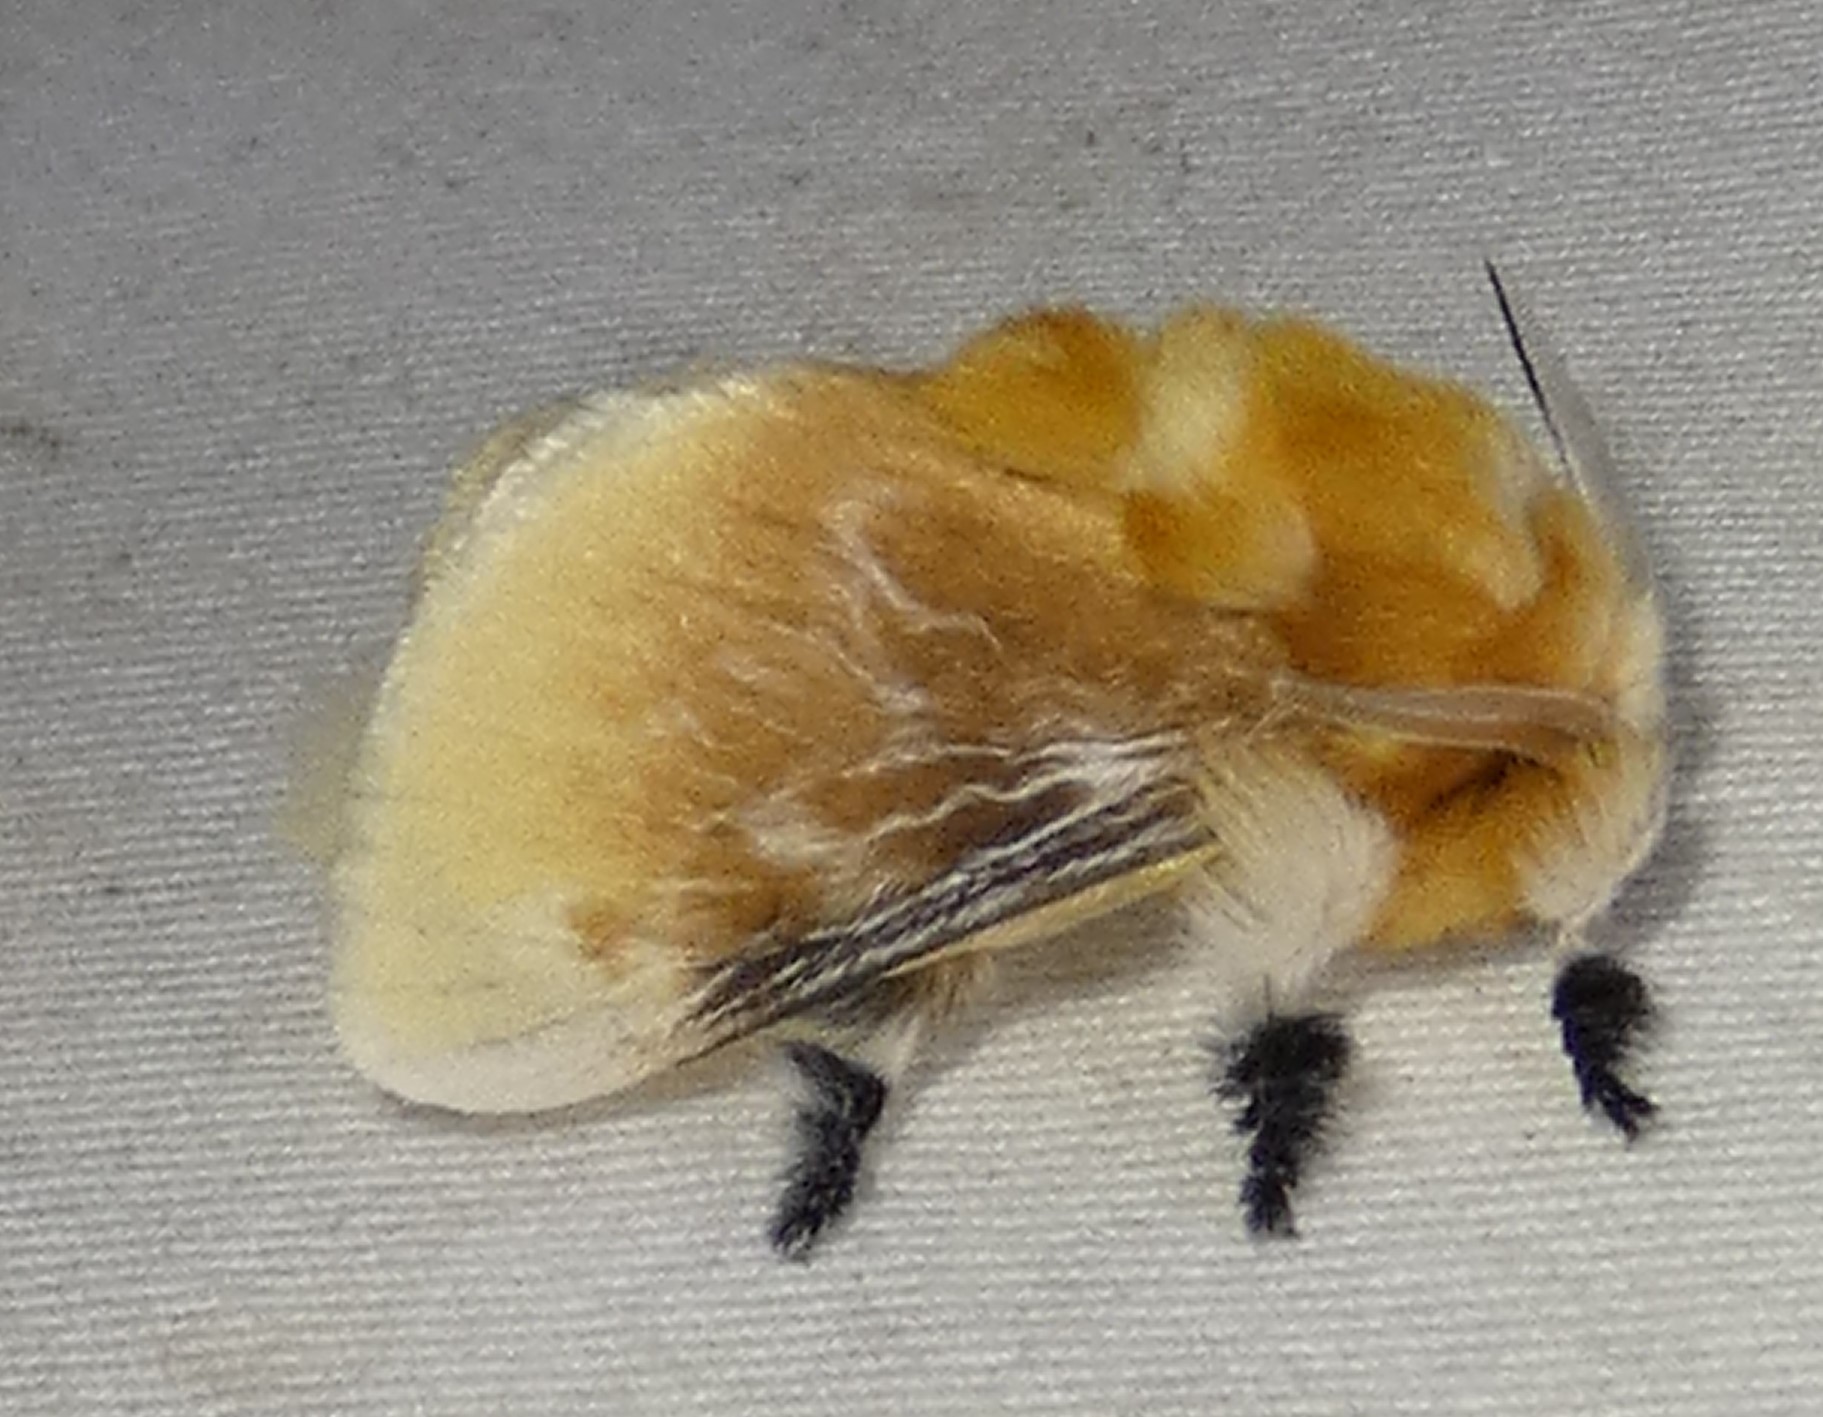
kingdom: Animalia
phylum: Arthropoda
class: Insecta
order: Lepidoptera
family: Megalopygidae
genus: Megalopyge
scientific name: Megalopyge opercularis
